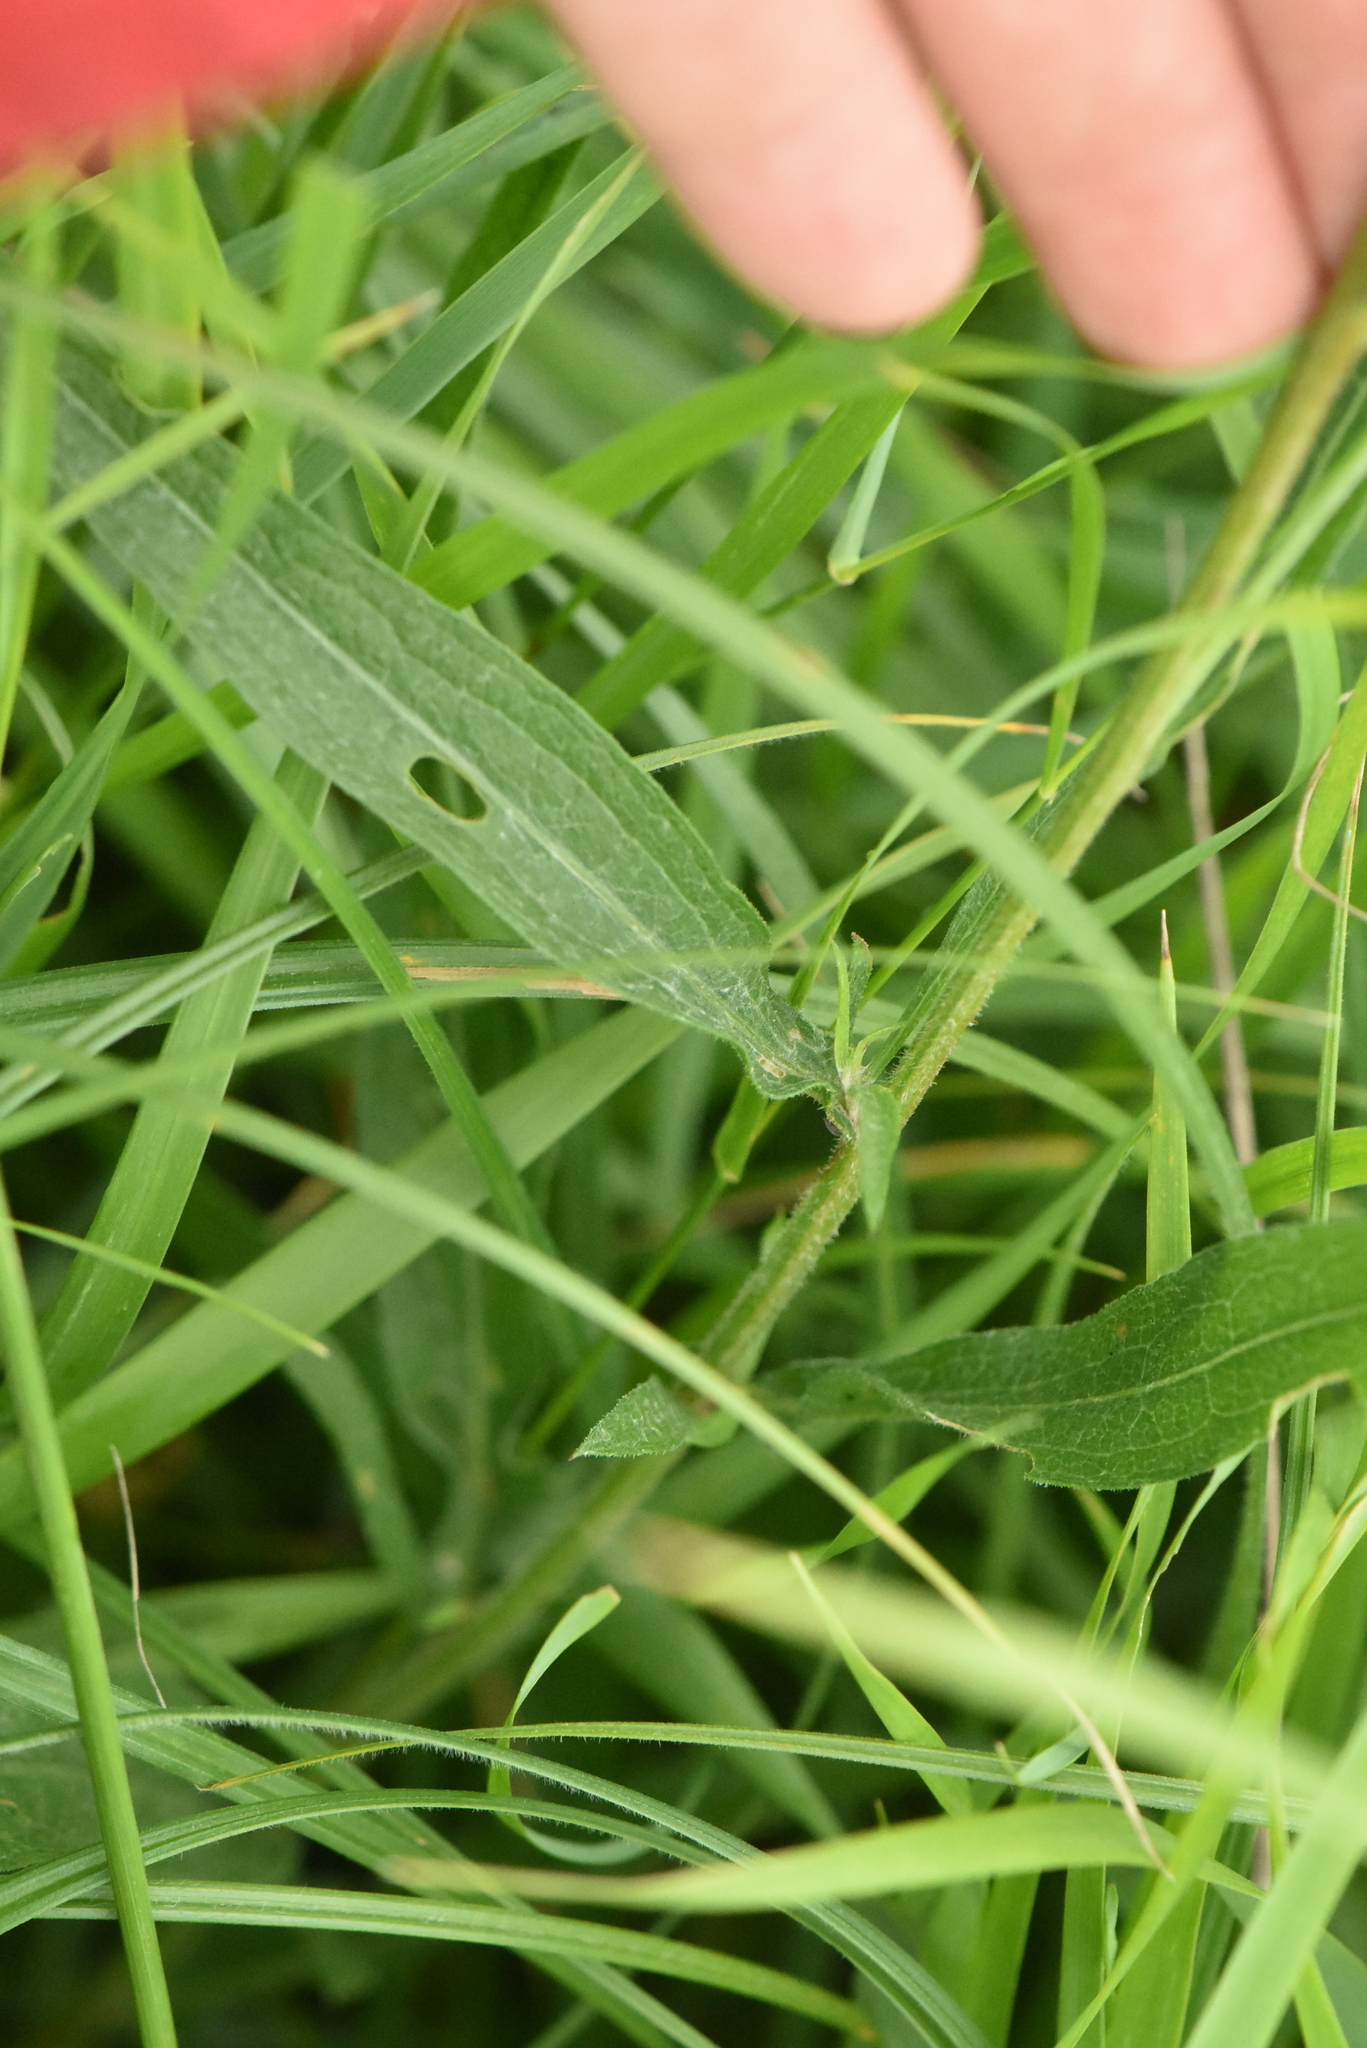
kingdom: Plantae
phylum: Tracheophyta
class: Magnoliopsida
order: Asterales
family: Asteraceae
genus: Centaurea
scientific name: Centaurea jacea
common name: Brown knapweed
